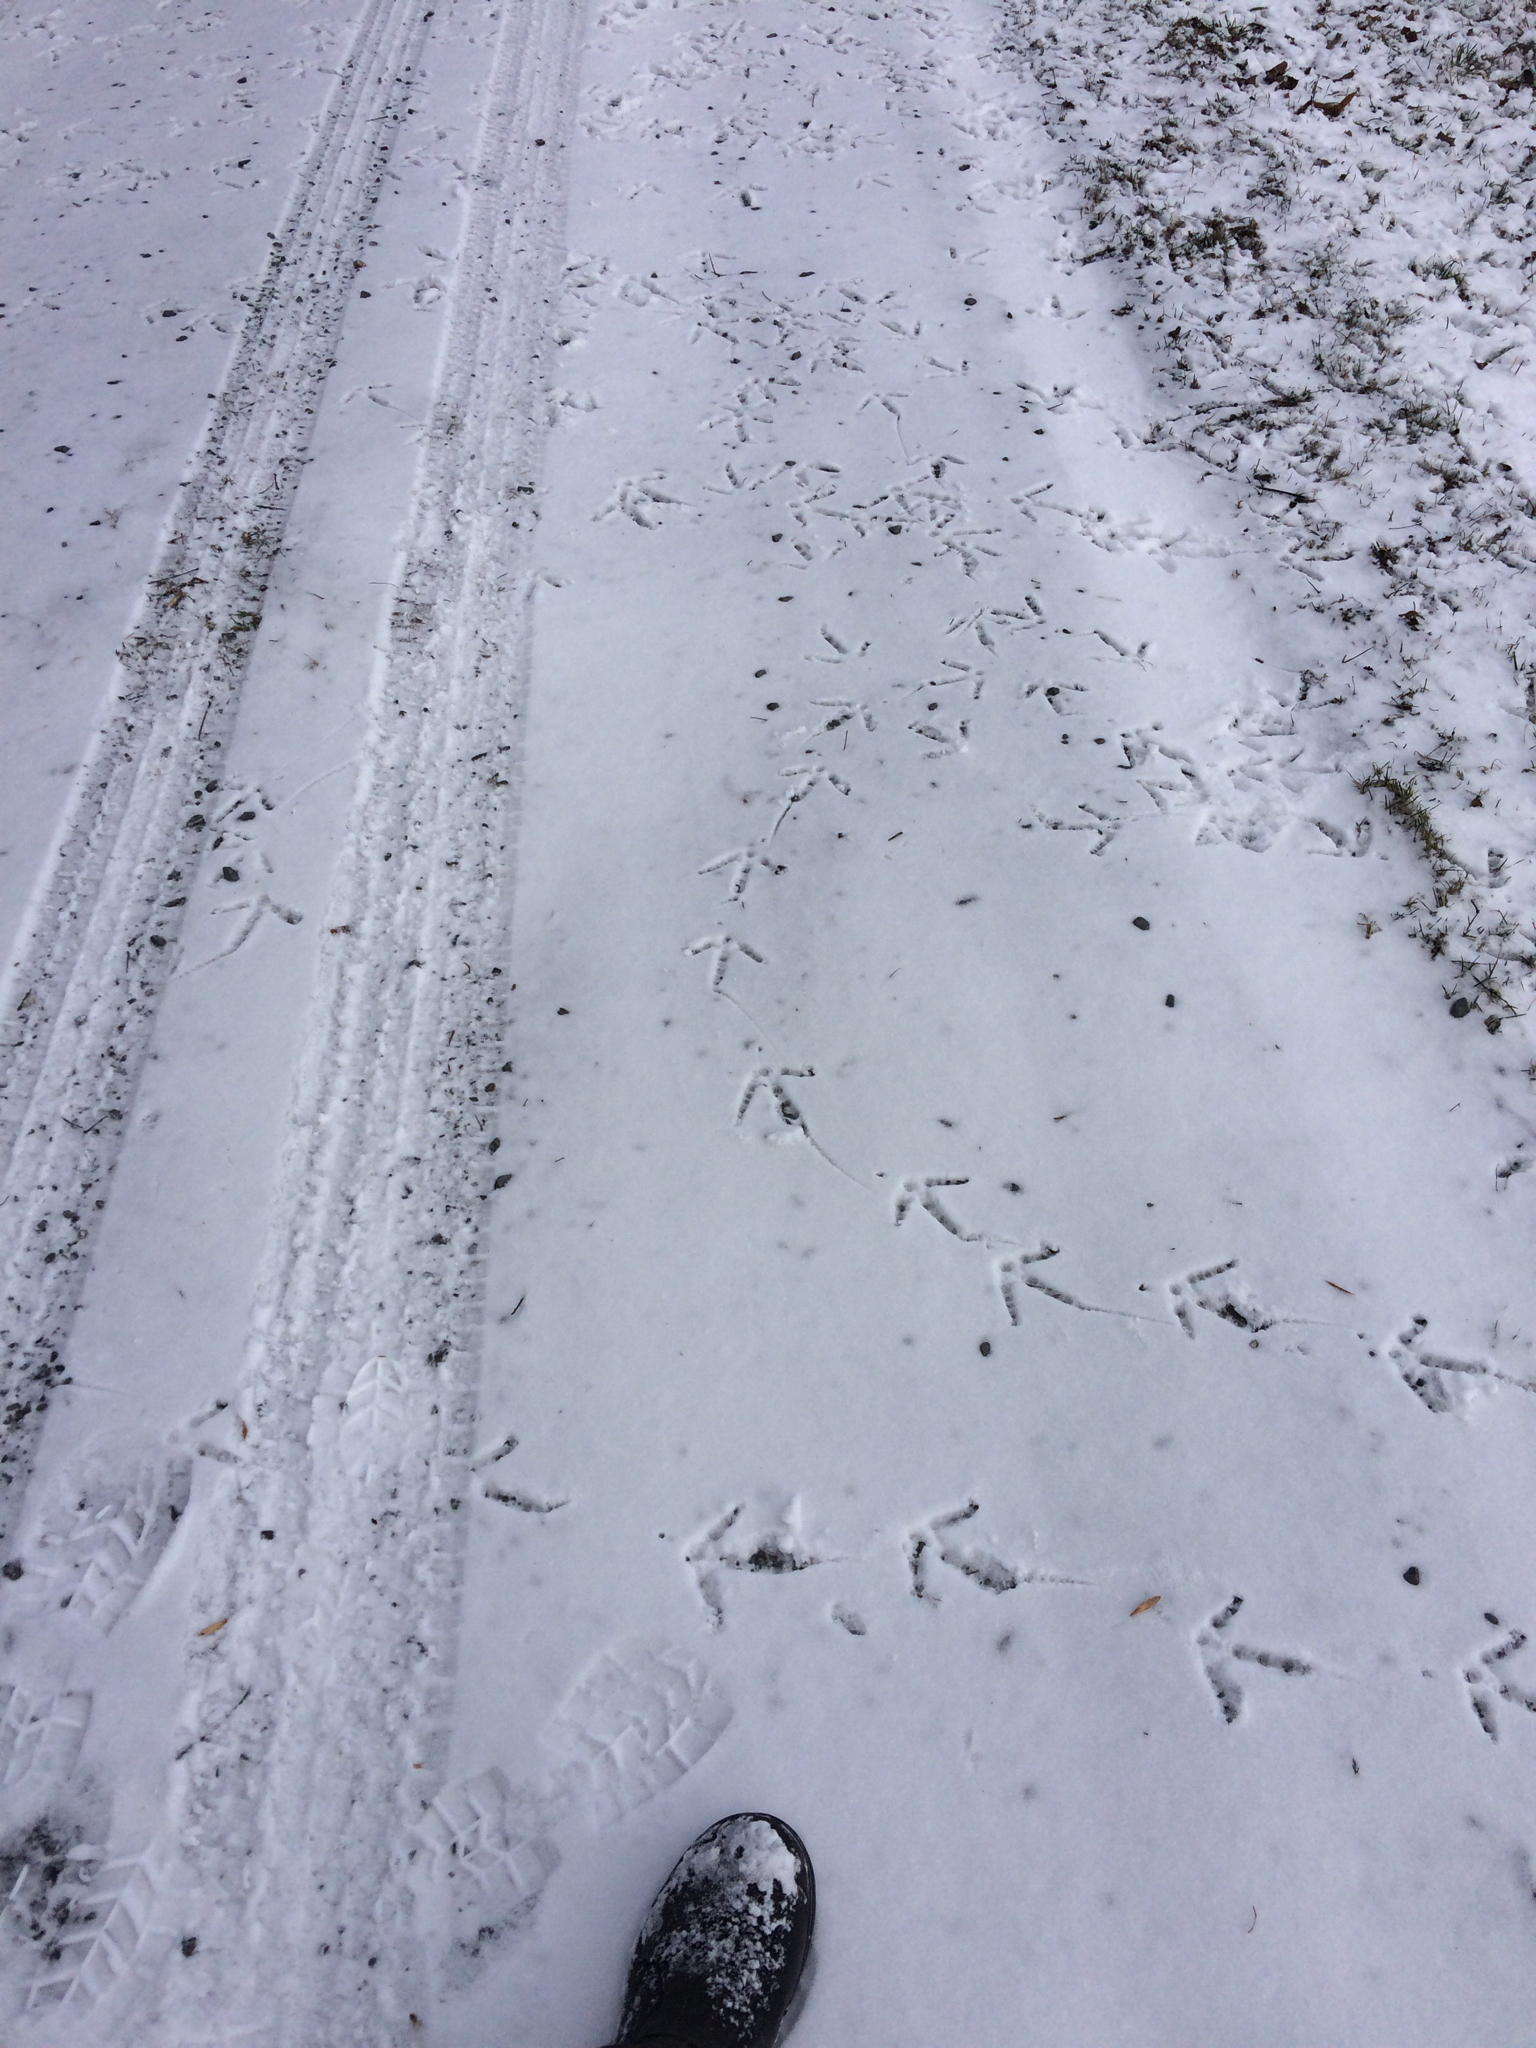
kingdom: Animalia
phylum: Chordata
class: Aves
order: Galliformes
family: Phasianidae
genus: Meleagris
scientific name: Meleagris gallopavo
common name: Wild turkey
